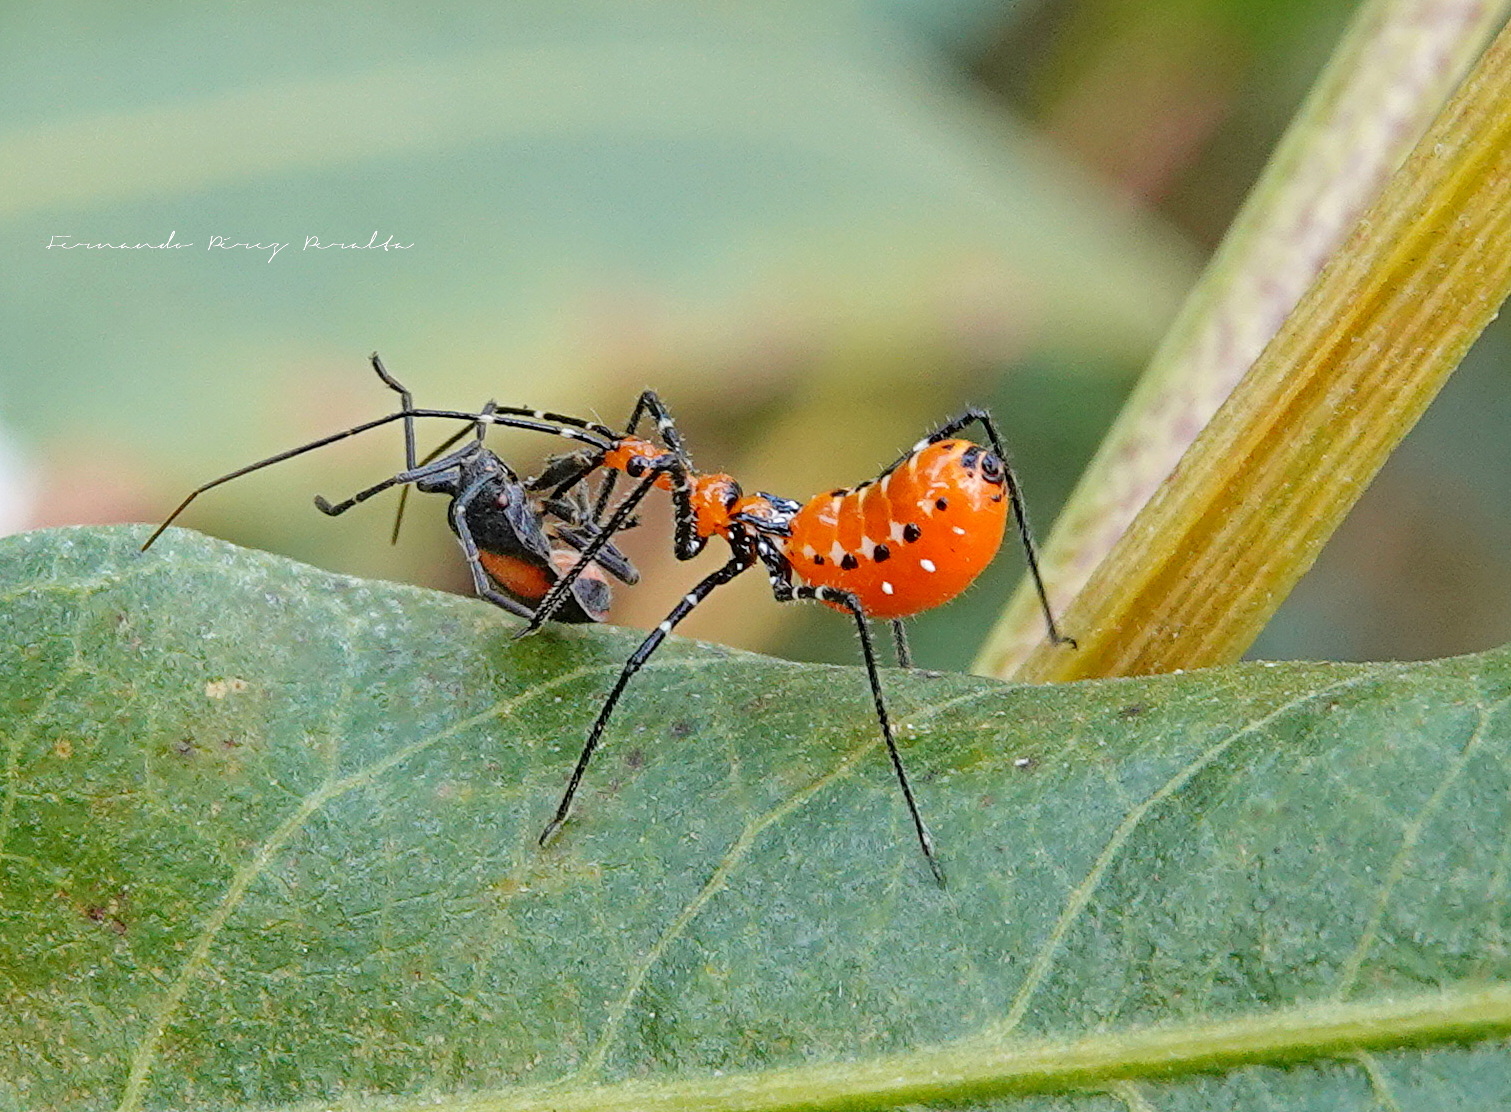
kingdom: Animalia
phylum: Arthropoda
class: Insecta
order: Hemiptera
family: Reduviidae
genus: Zelus
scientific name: Zelus longipes
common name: Milkweed assassin bug
